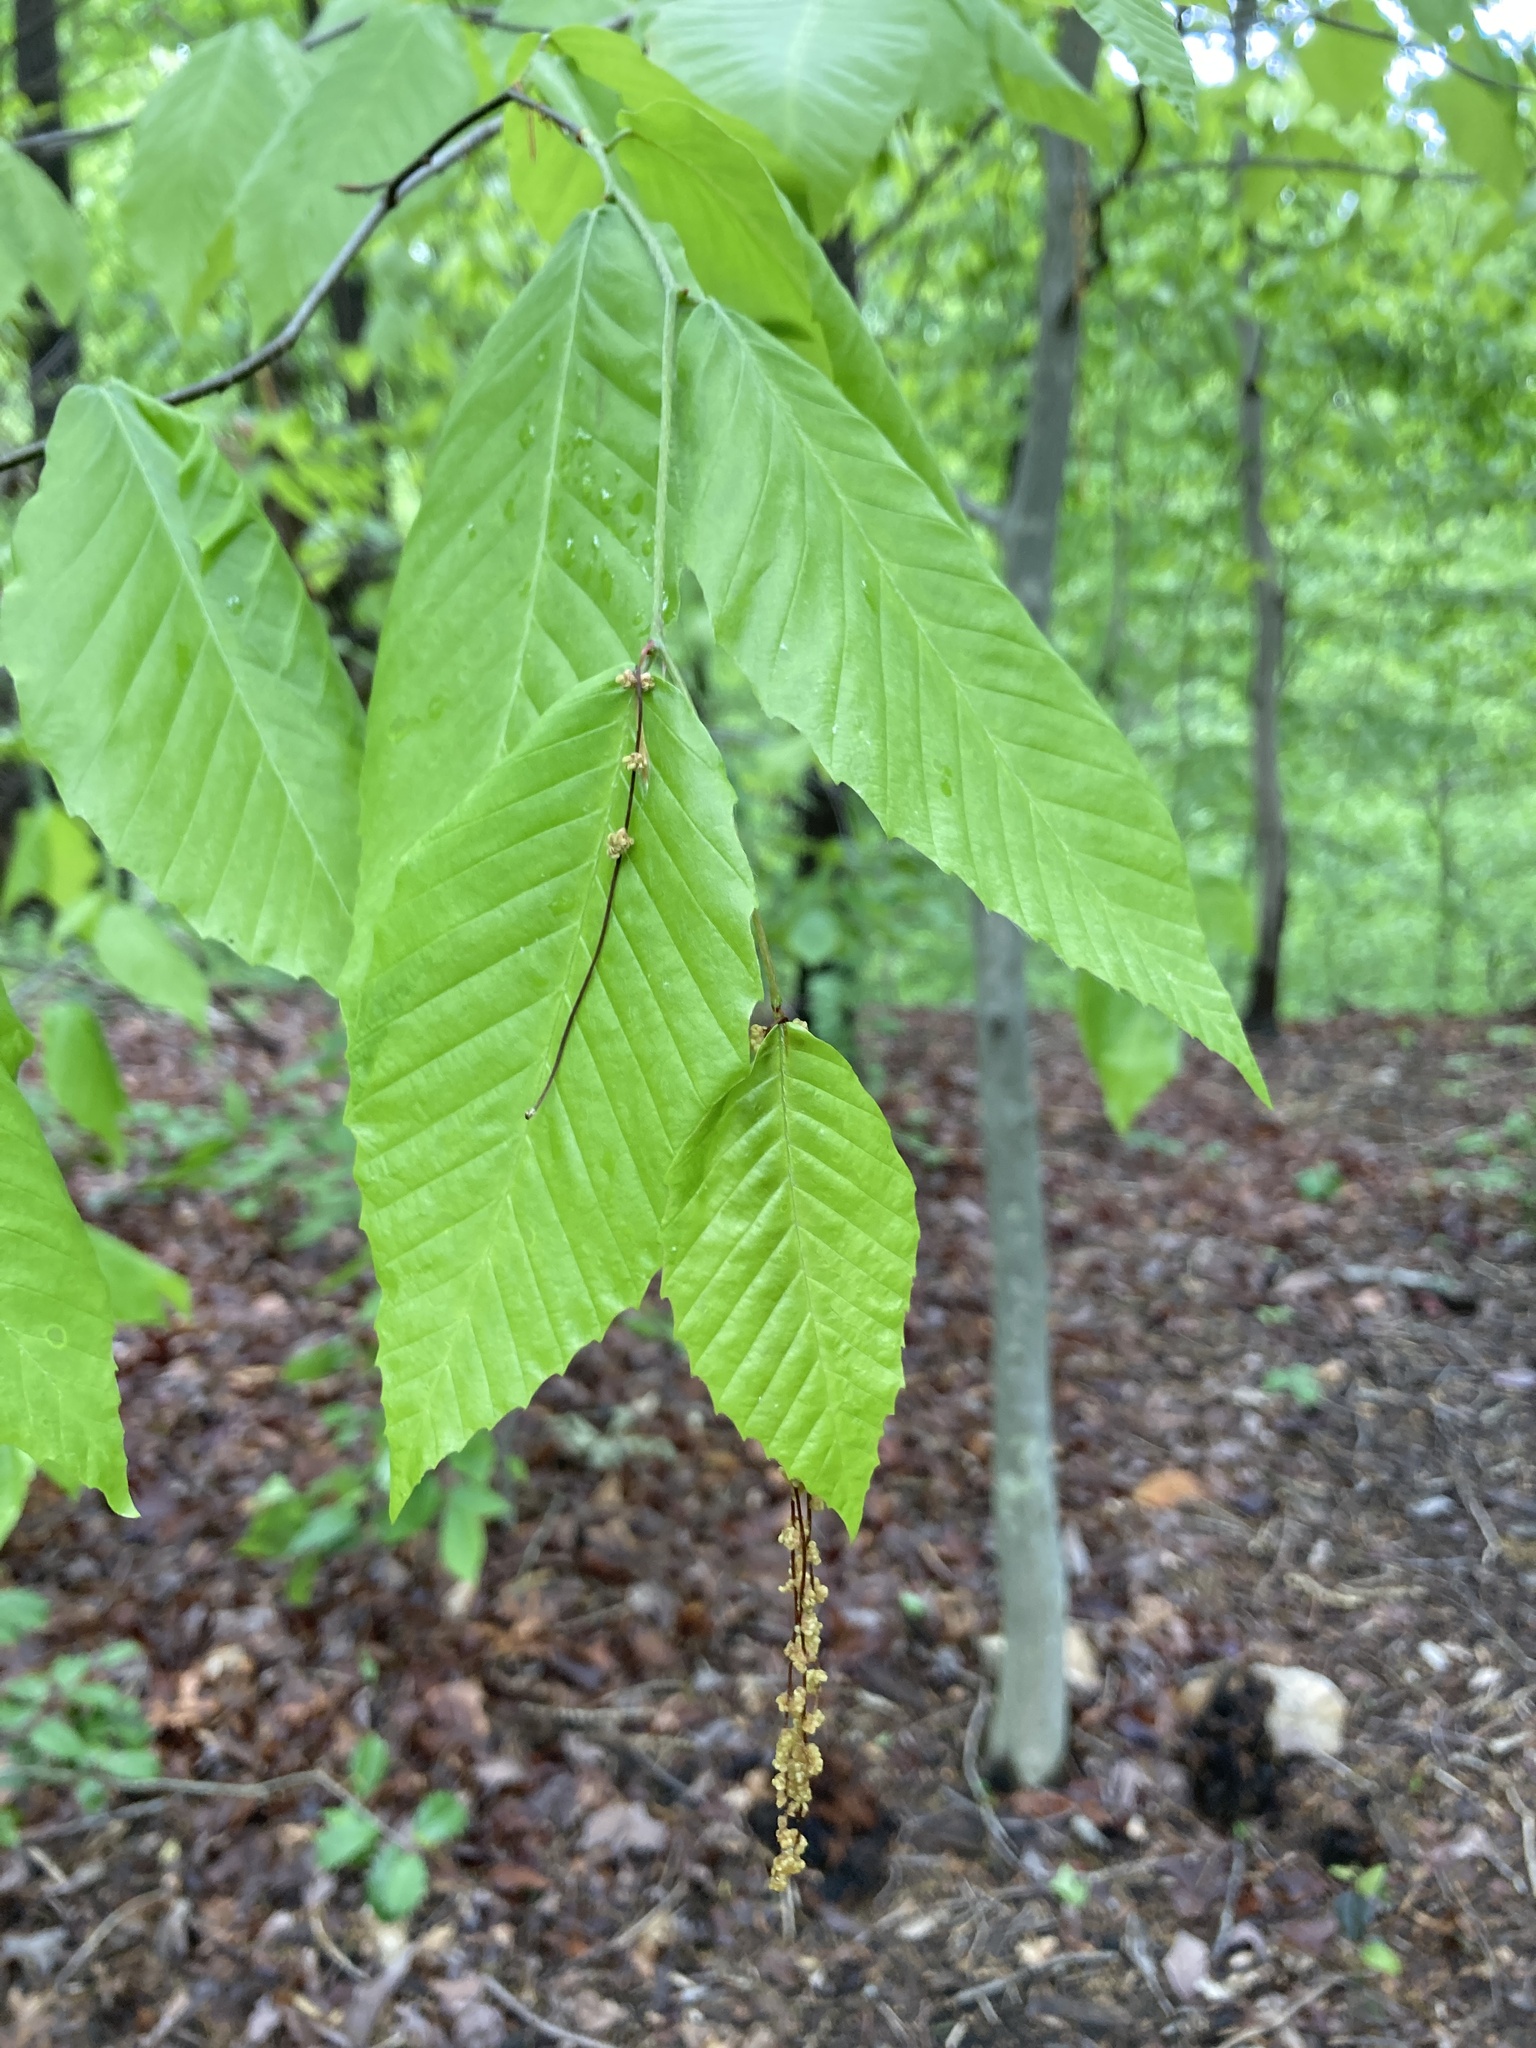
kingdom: Plantae
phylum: Tracheophyta
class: Magnoliopsida
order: Fagales
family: Betulaceae
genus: Carpinus
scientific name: Carpinus caroliniana
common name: American hornbeam
